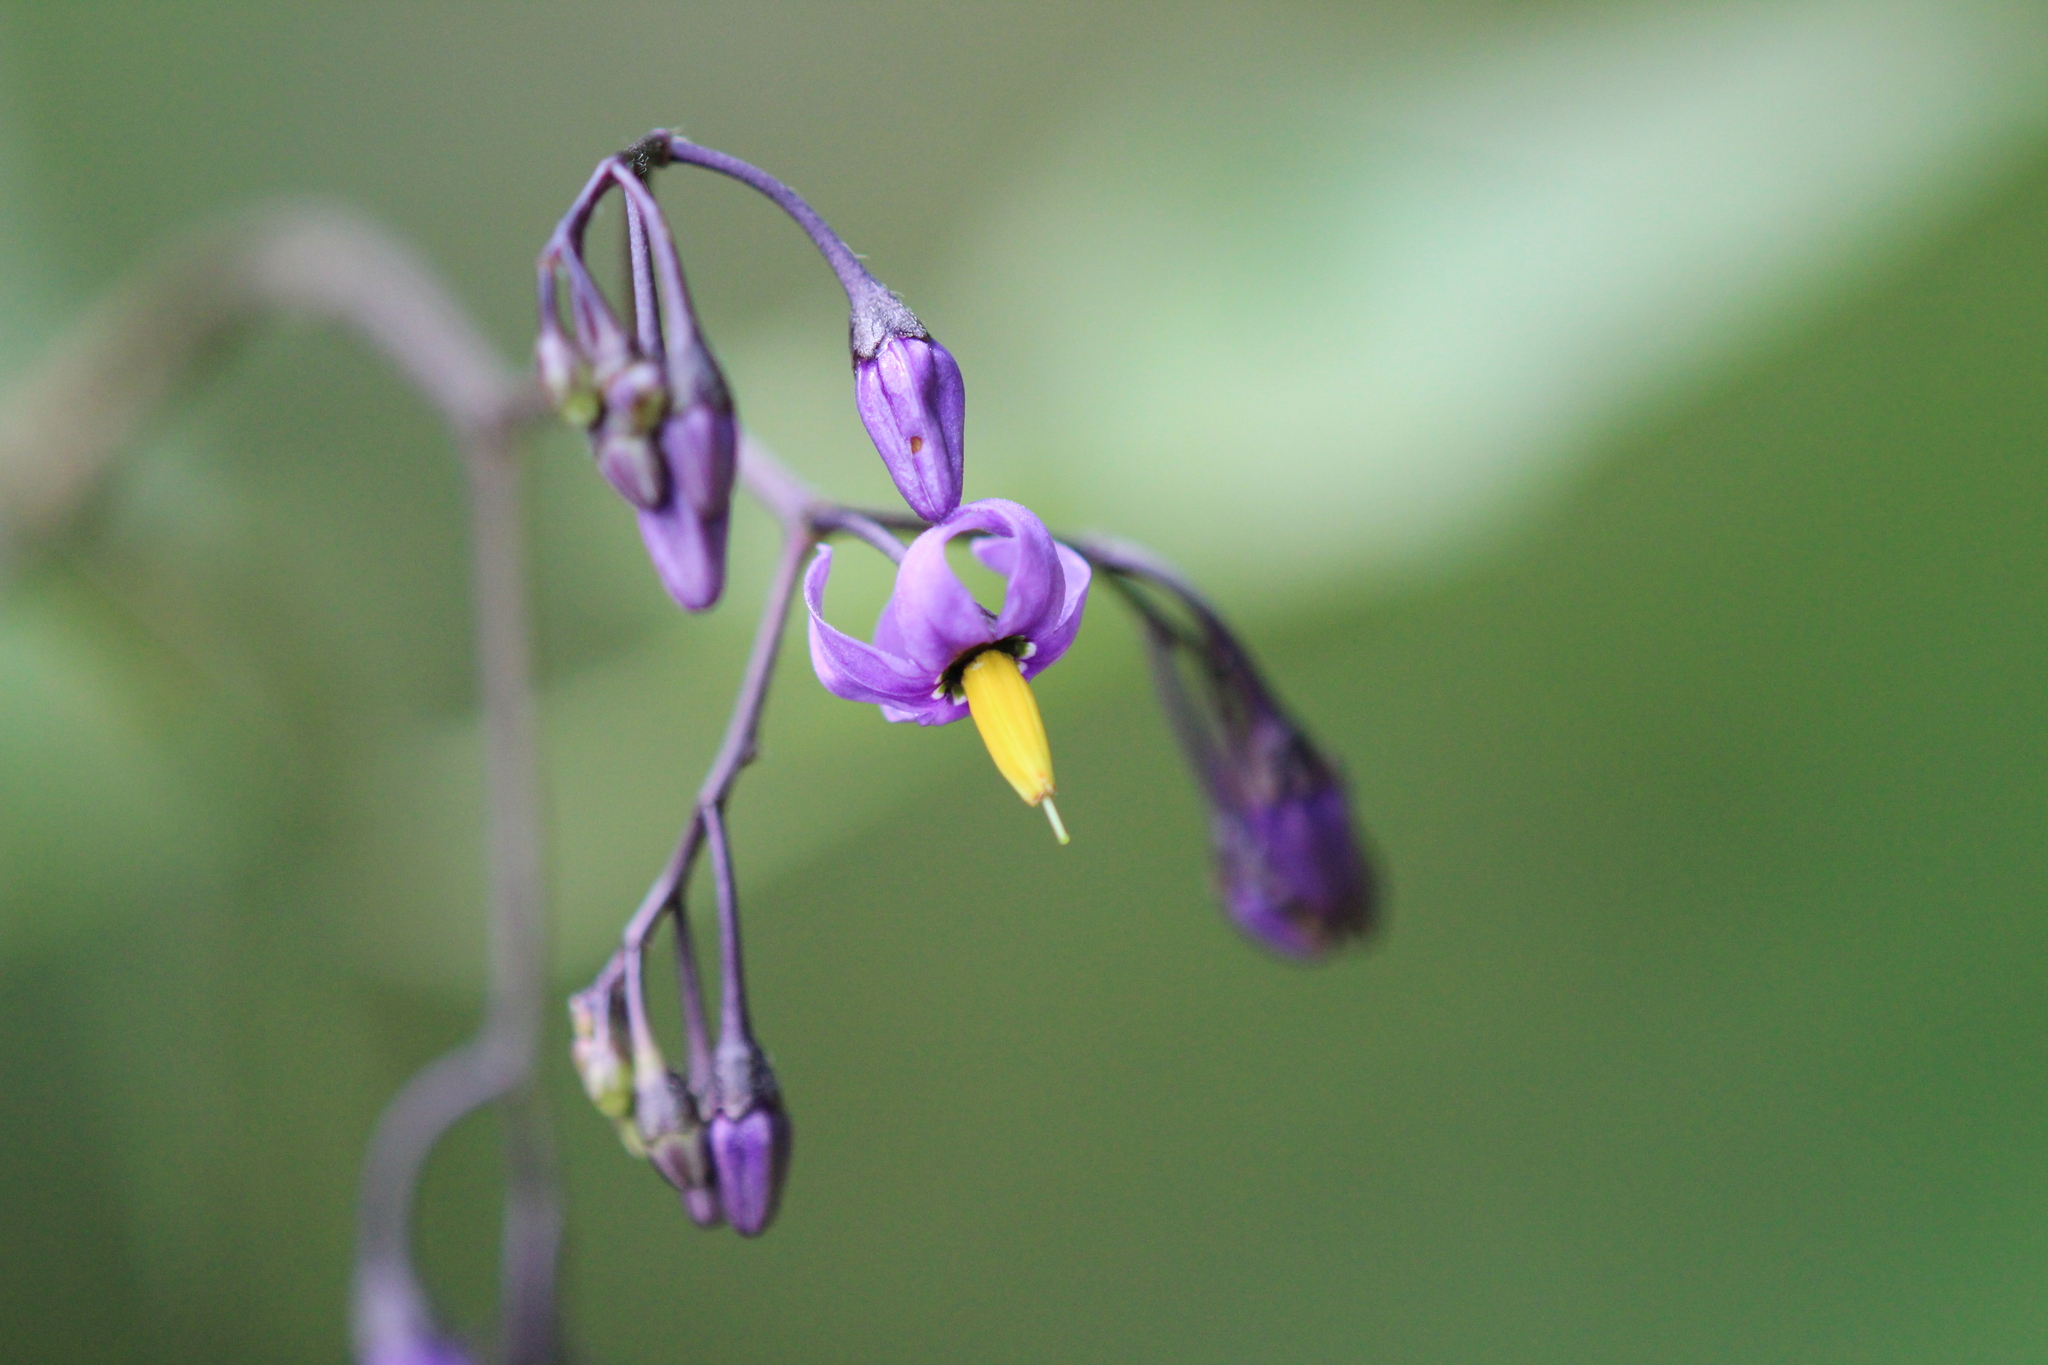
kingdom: Plantae
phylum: Tracheophyta
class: Magnoliopsida
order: Solanales
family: Solanaceae
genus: Solanum
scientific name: Solanum dulcamara
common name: Climbing nightshade
